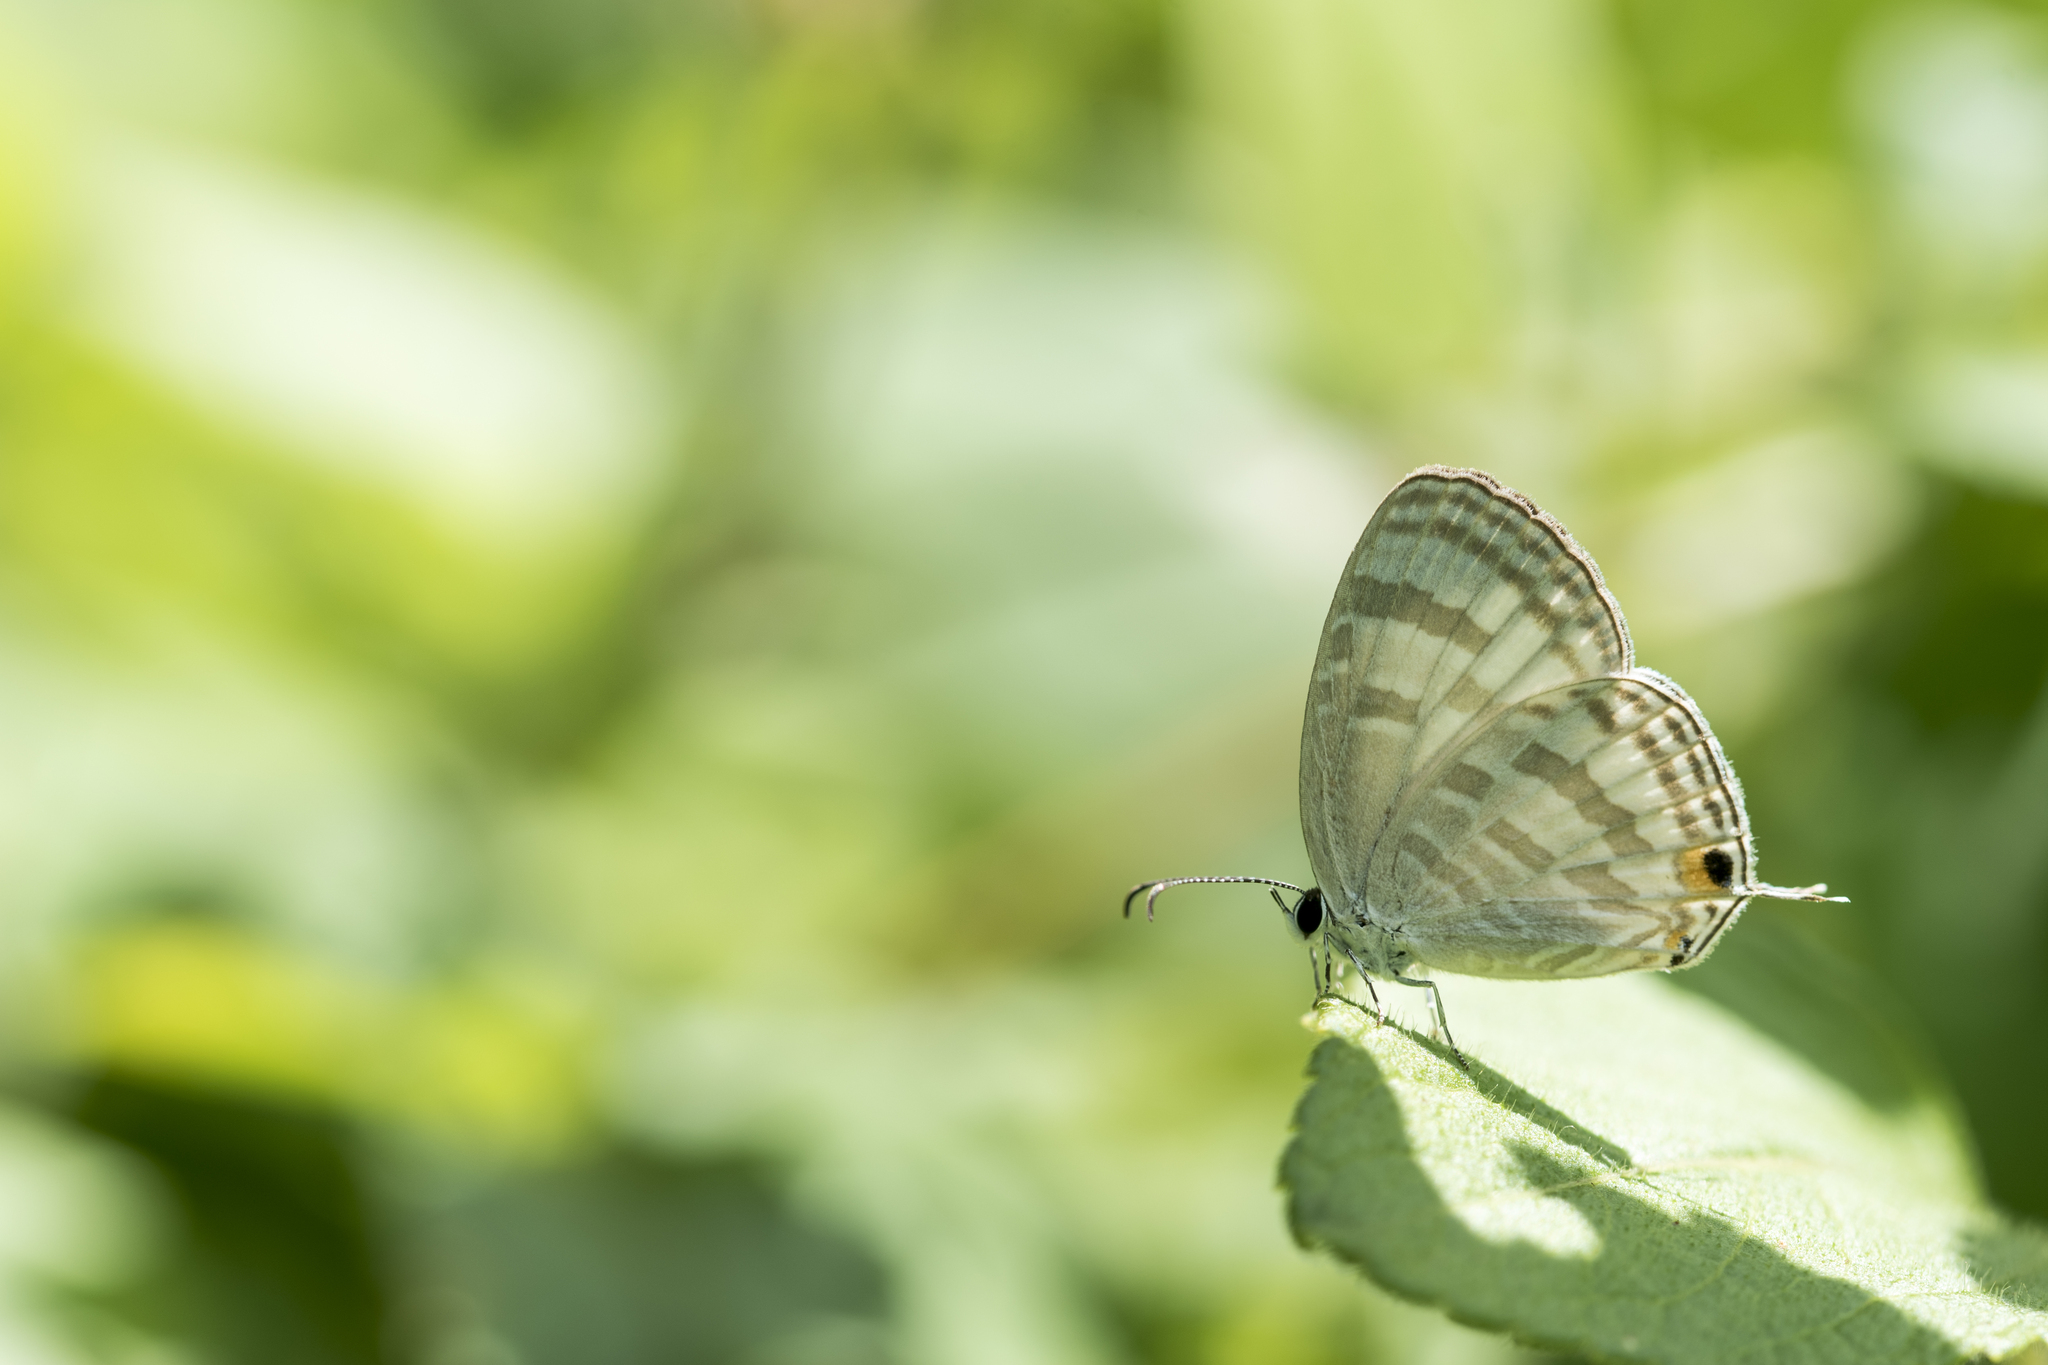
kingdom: Animalia
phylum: Arthropoda
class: Insecta
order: Lepidoptera
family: Lycaenidae
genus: Jamides
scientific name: Jamides celeno
